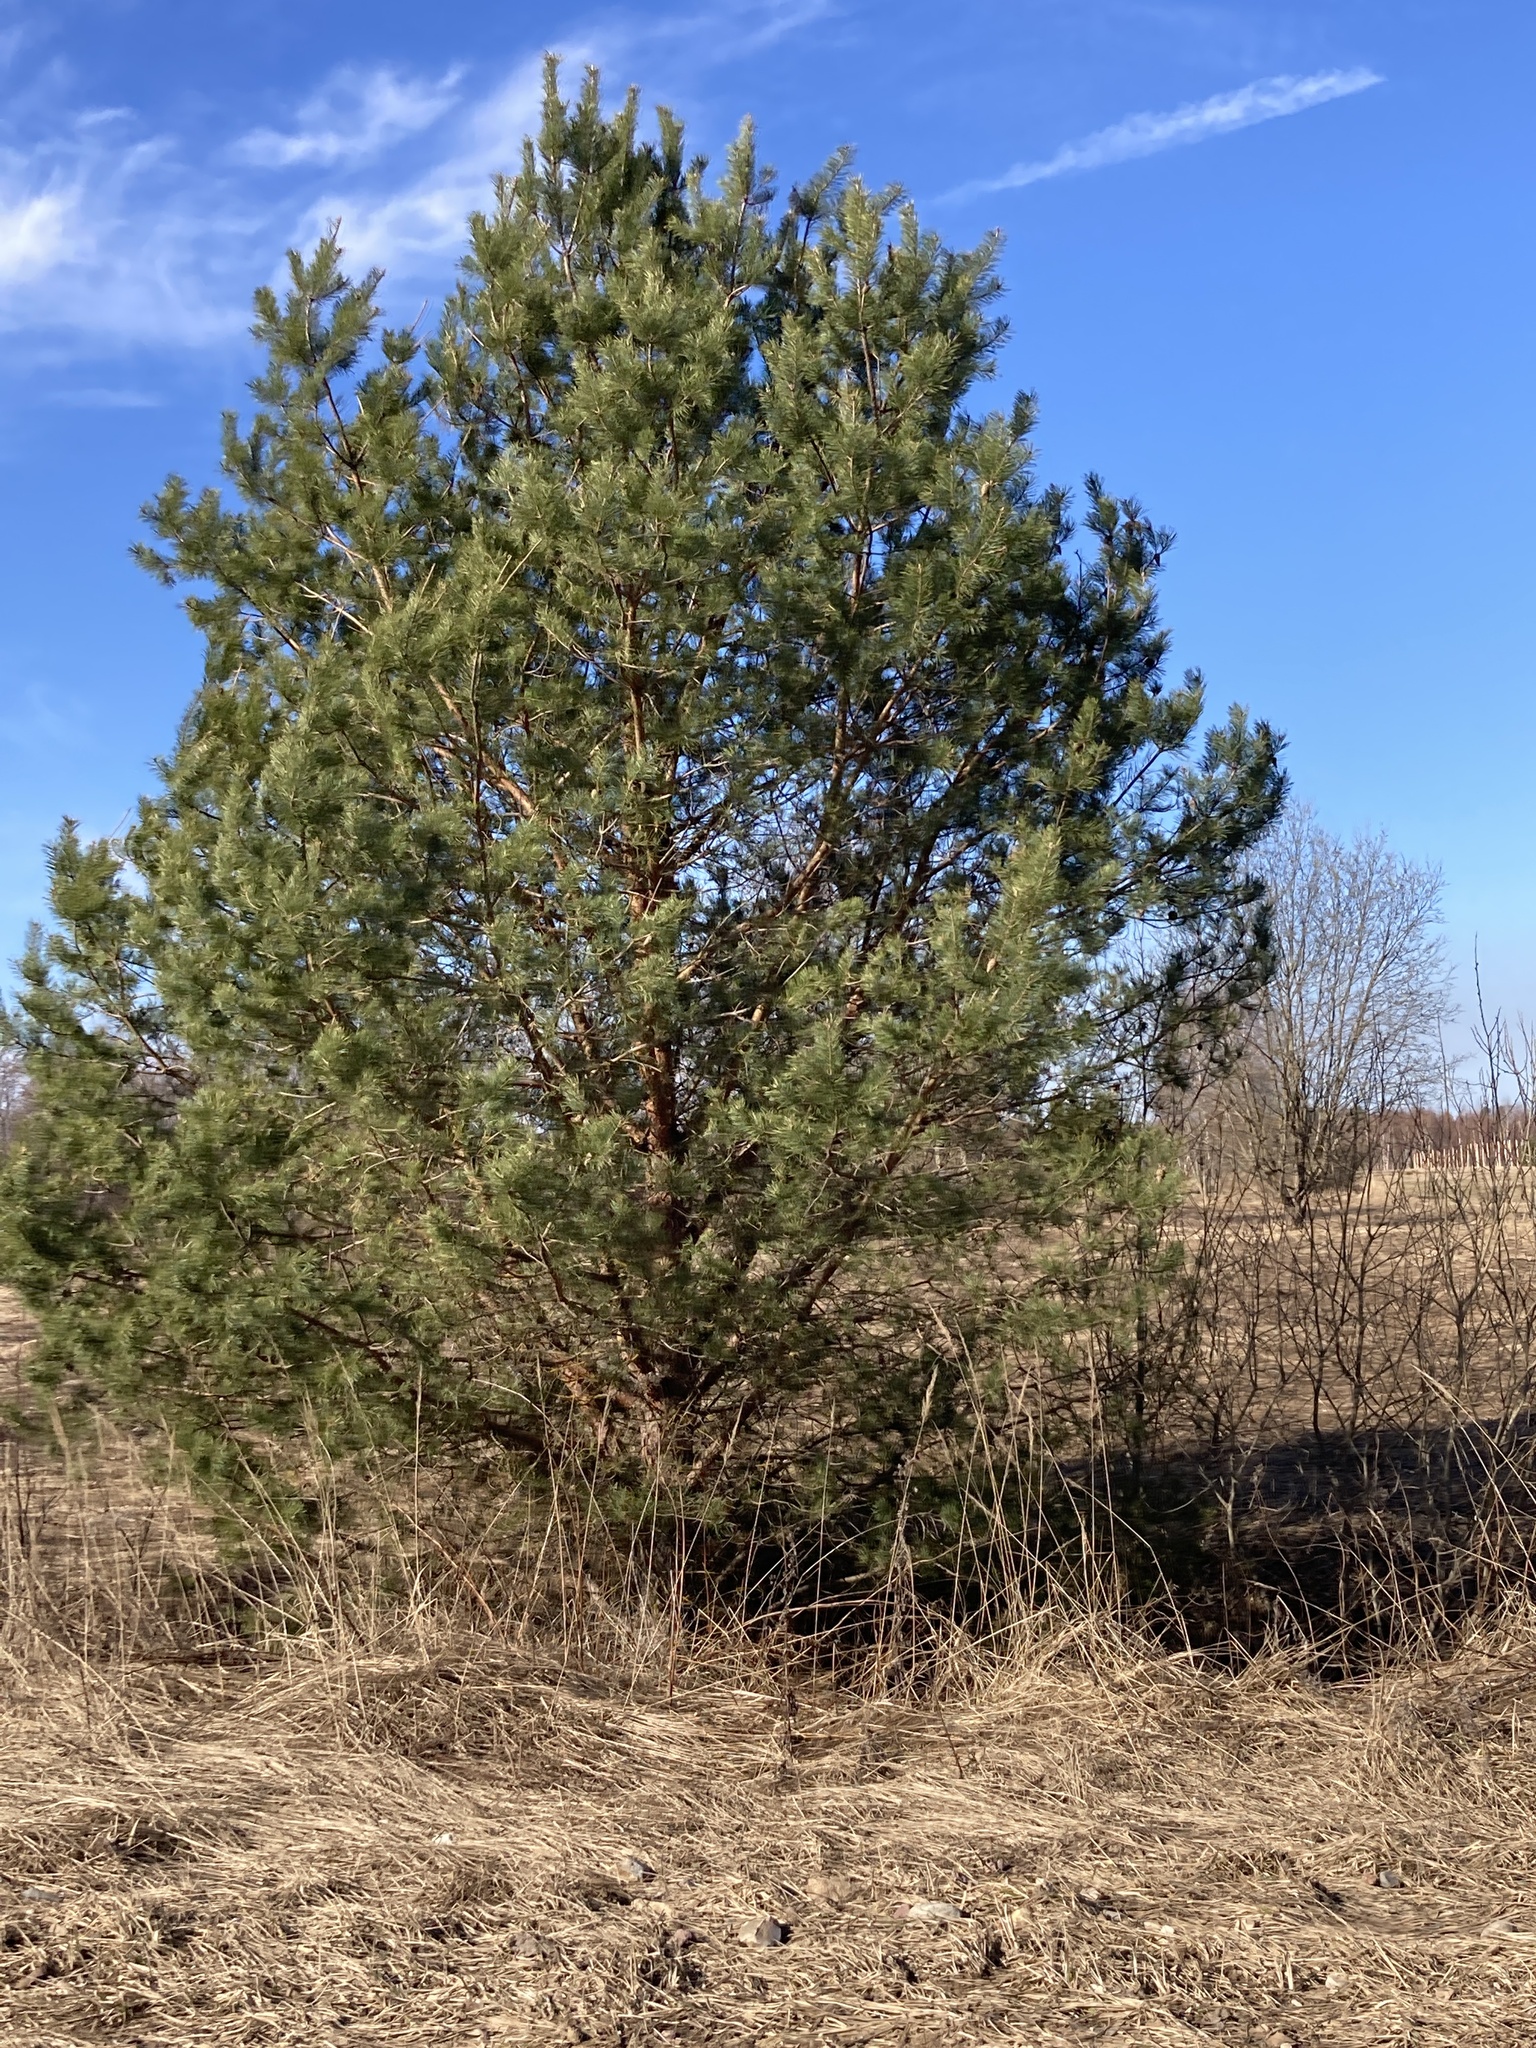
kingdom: Plantae
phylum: Tracheophyta
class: Pinopsida
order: Pinales
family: Pinaceae
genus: Pinus
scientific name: Pinus sylvestris
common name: Scots pine
